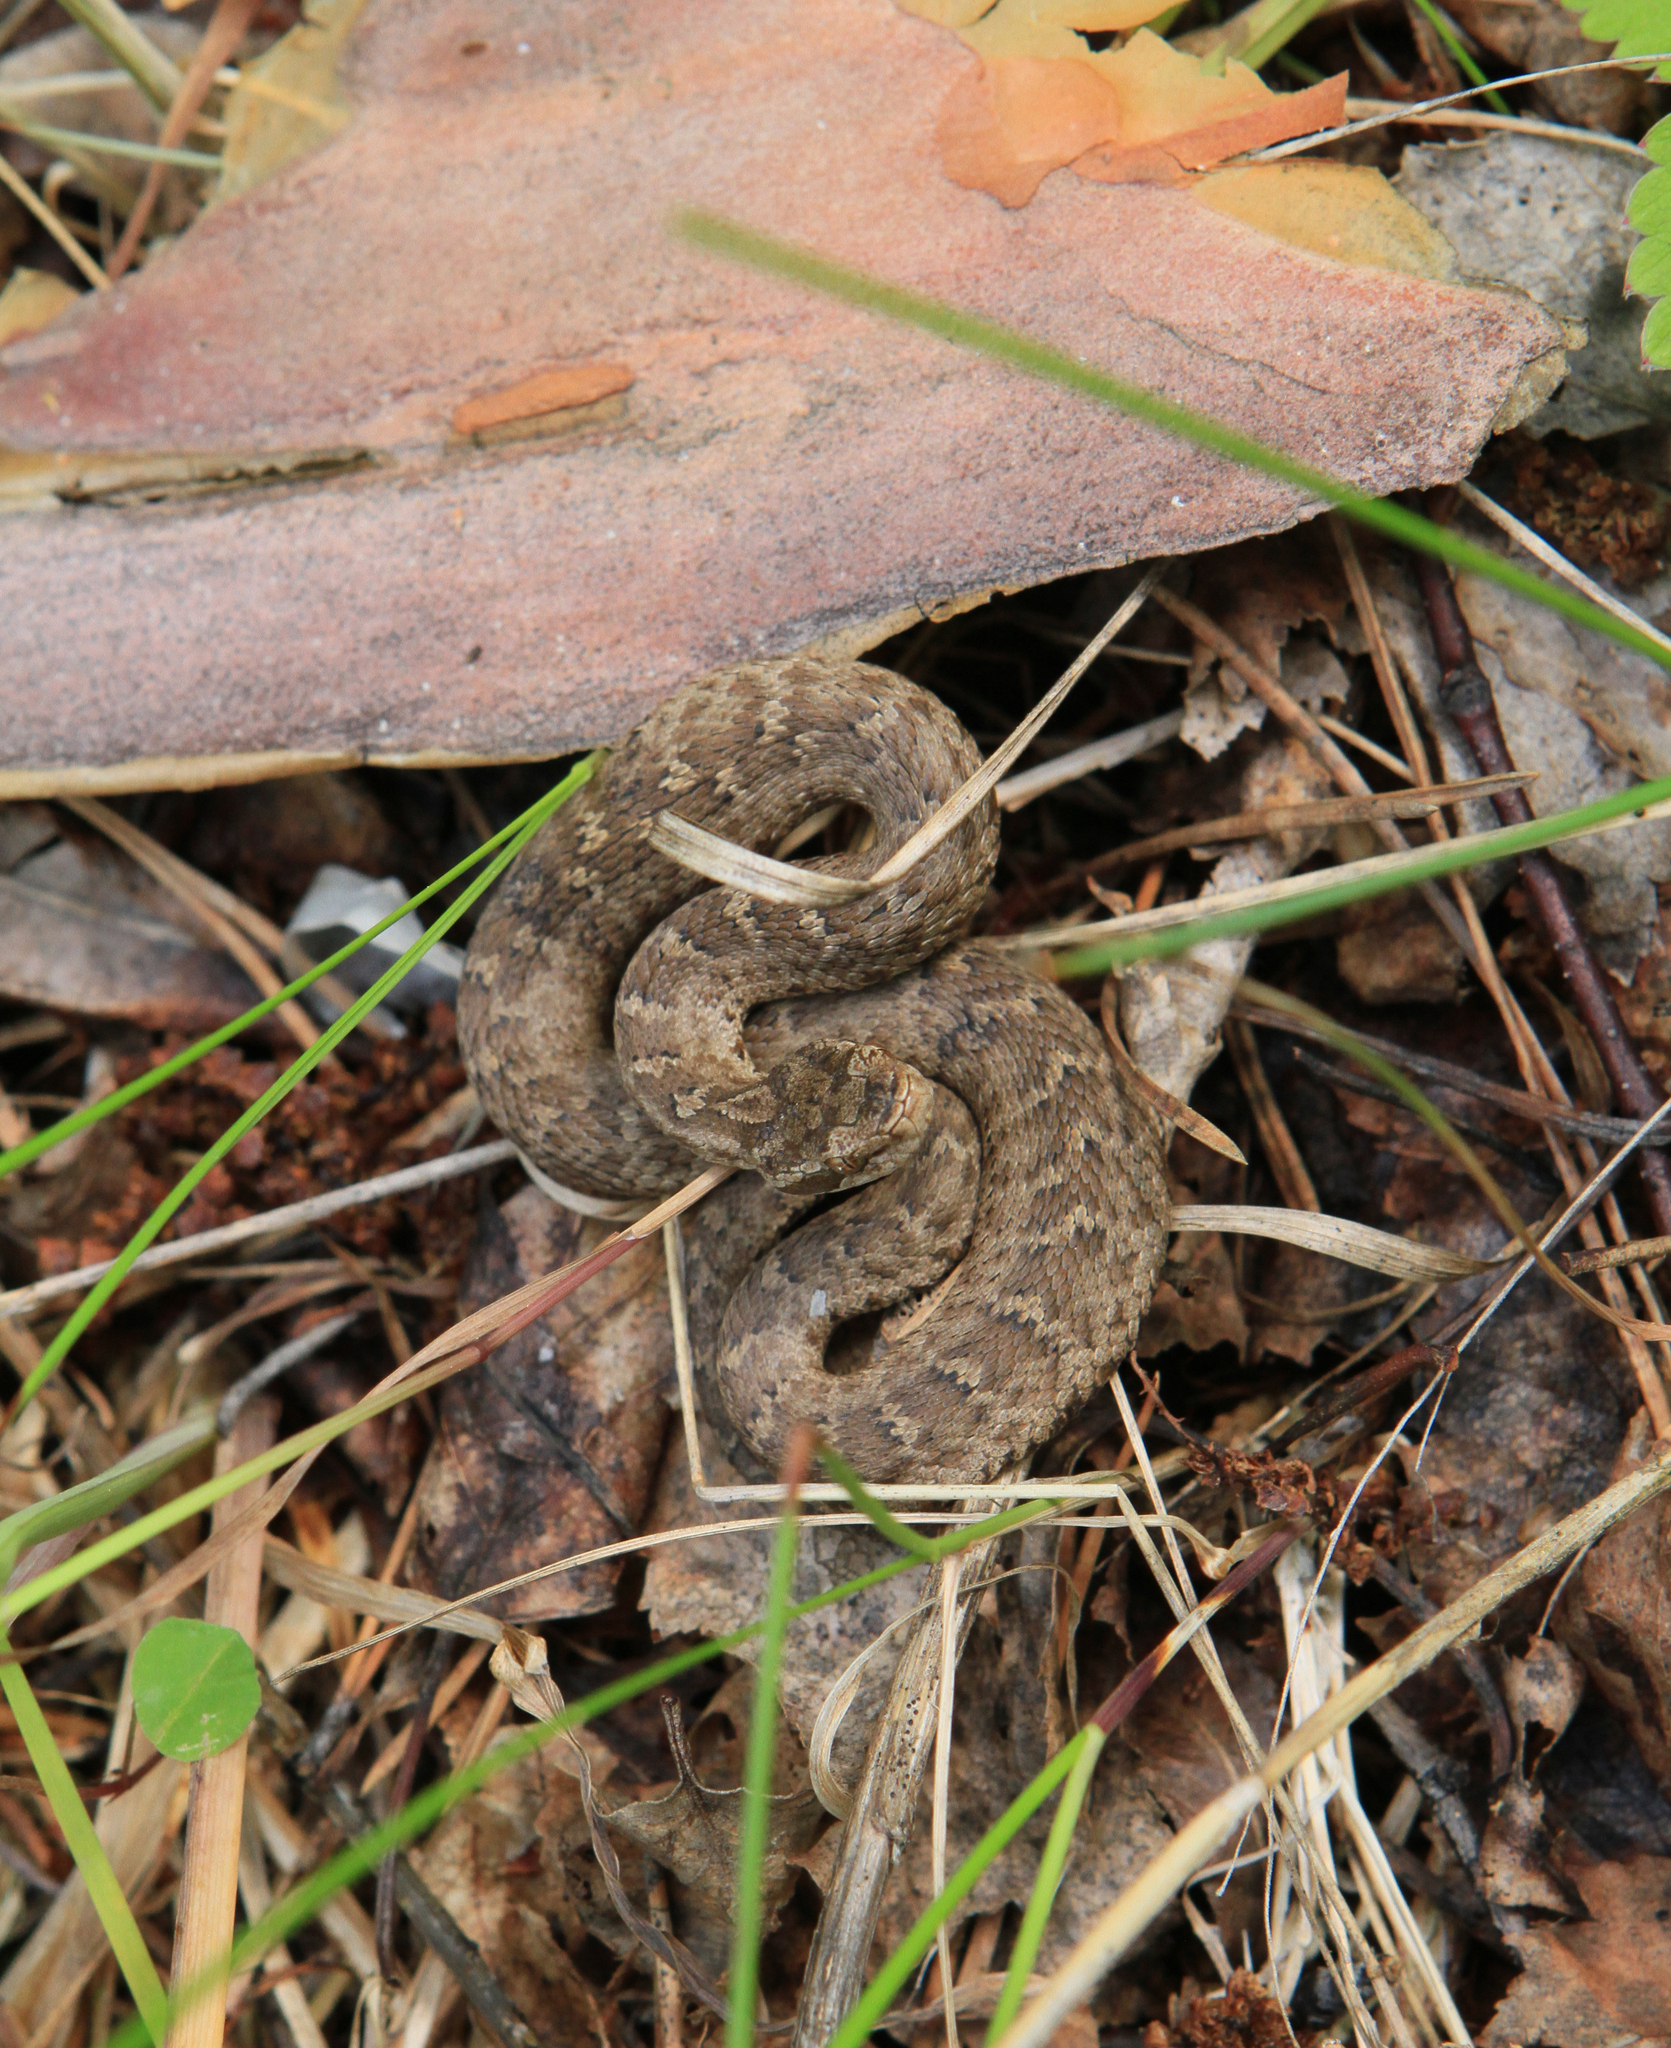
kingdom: Animalia
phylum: Chordata
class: Squamata
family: Viperidae
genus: Gloydius
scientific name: Gloydius halys
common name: Halys pit viper
